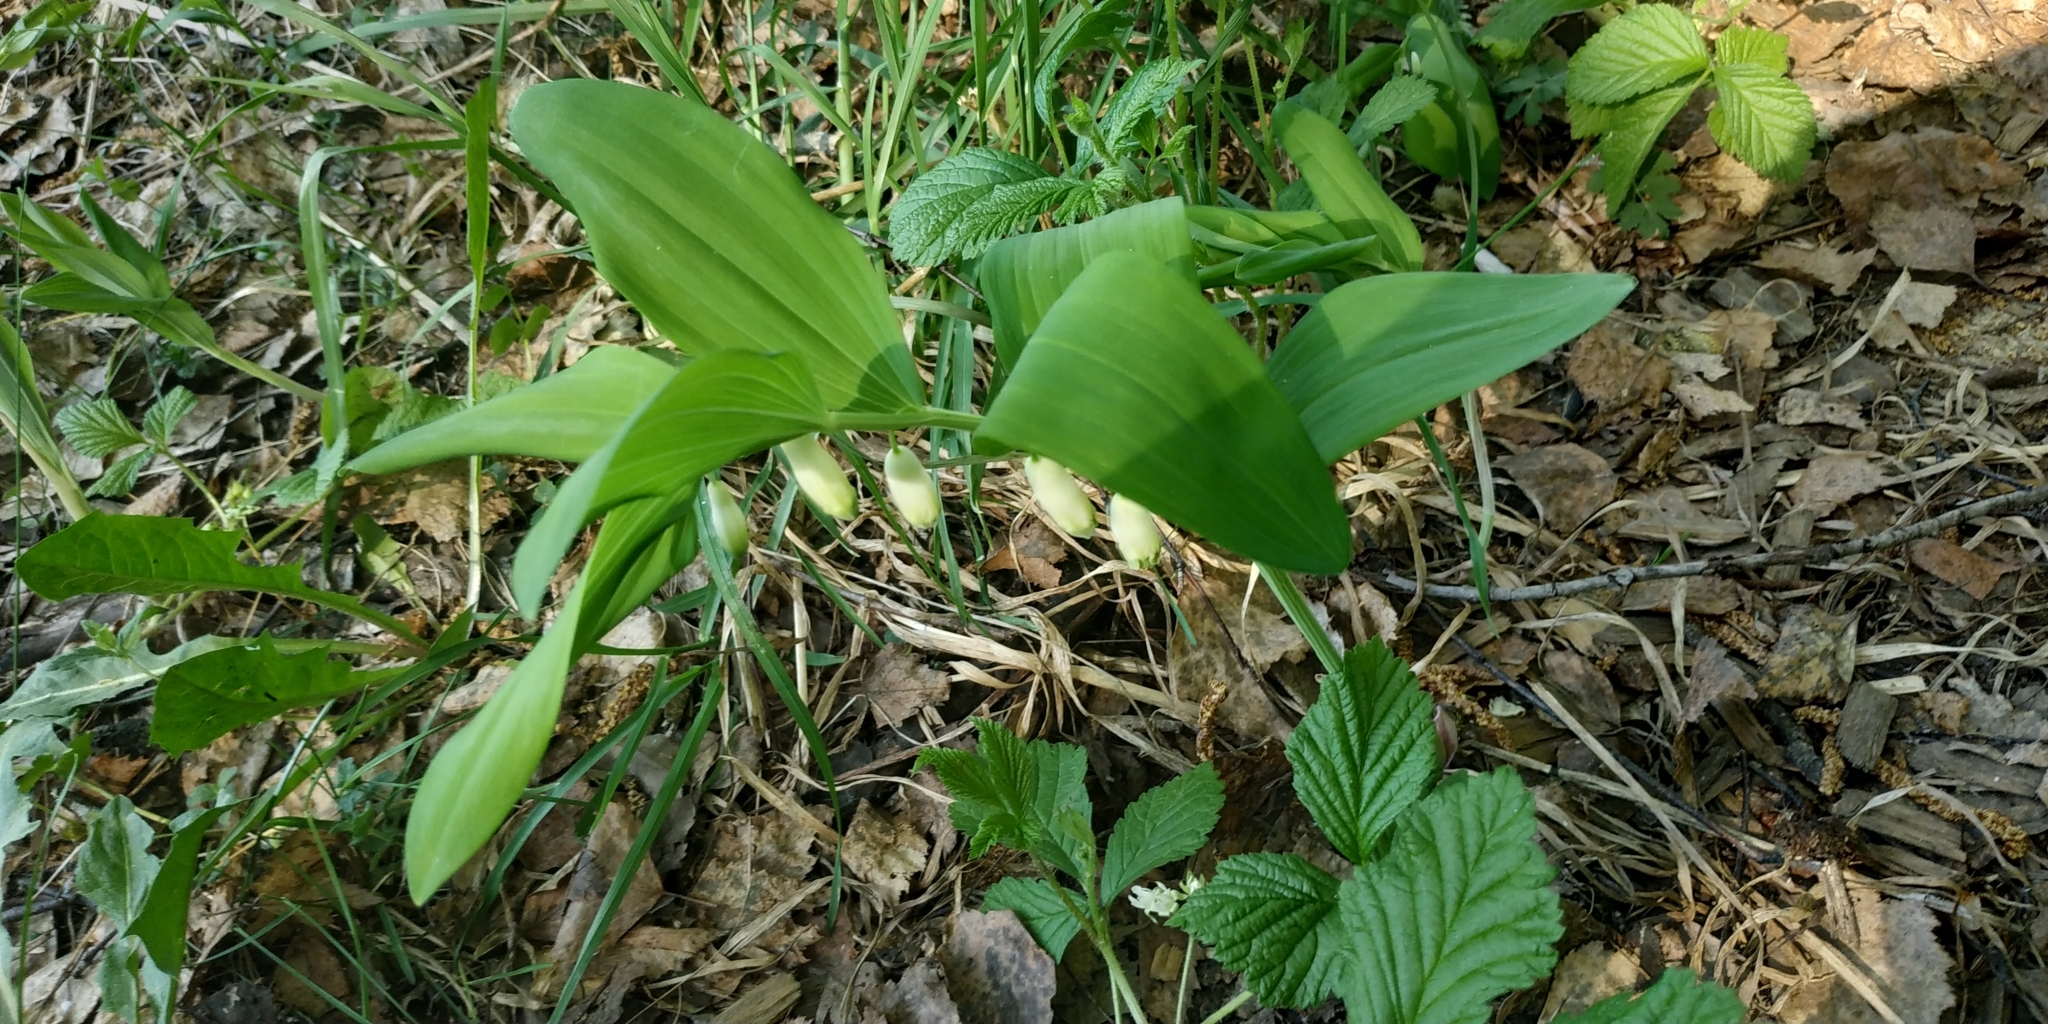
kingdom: Plantae
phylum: Tracheophyta
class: Liliopsida
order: Asparagales
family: Asparagaceae
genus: Polygonatum
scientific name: Polygonatum odoratum
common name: Angular solomon's-seal
